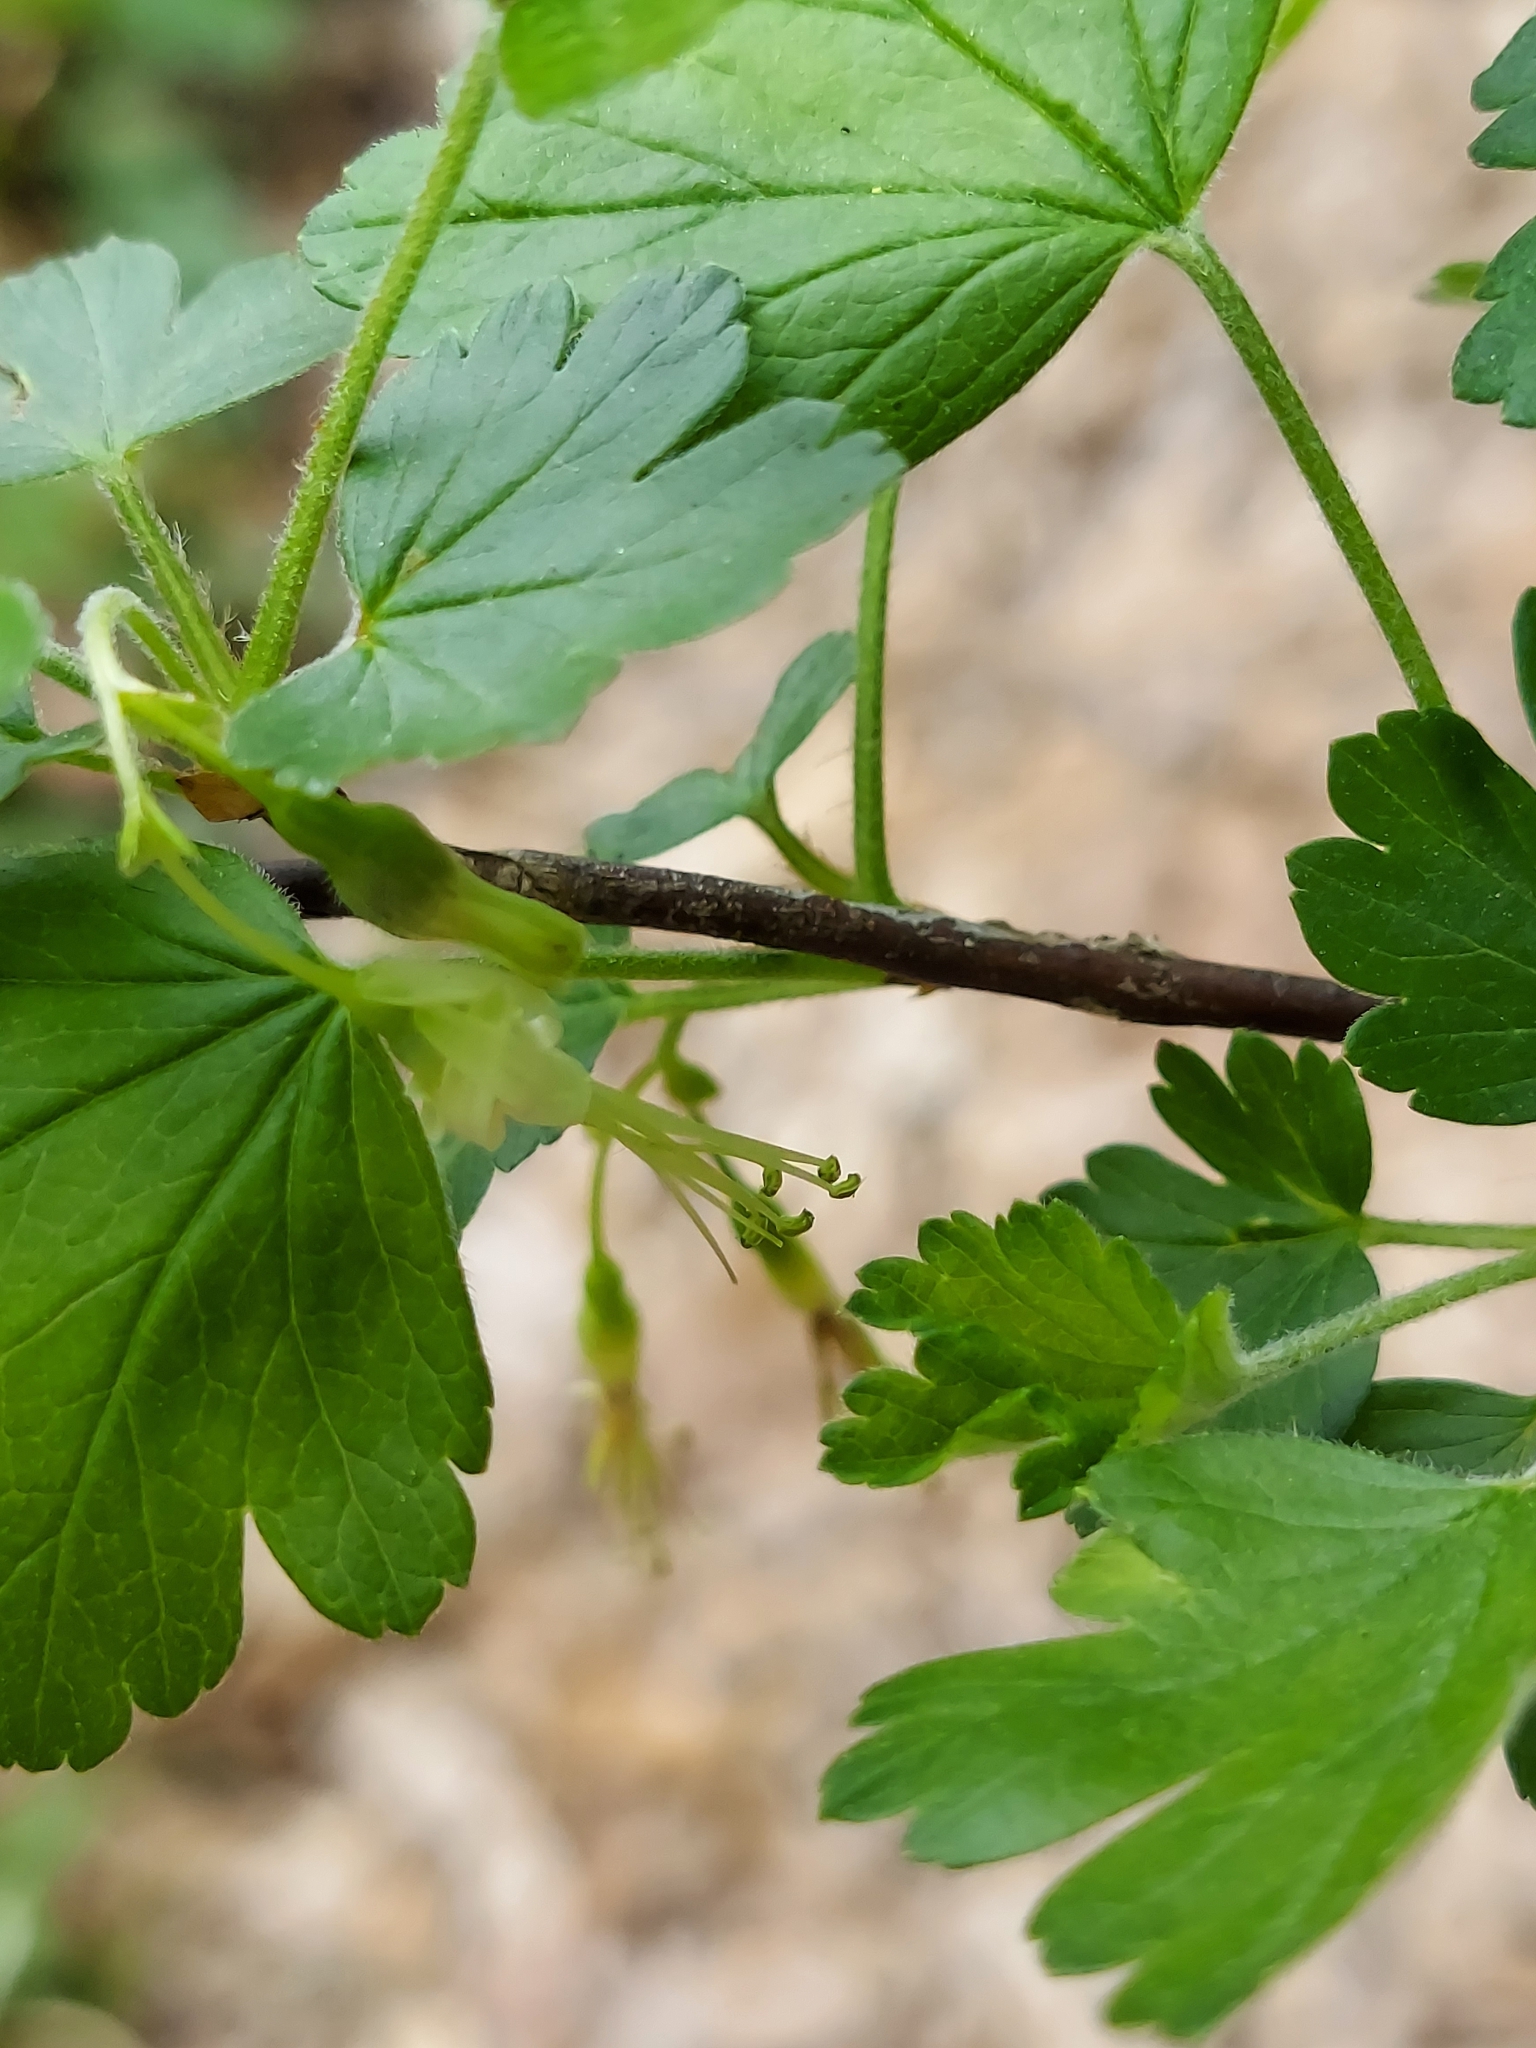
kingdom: Plantae
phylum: Tracheophyta
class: Magnoliopsida
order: Saxifragales
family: Grossulariaceae
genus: Ribes
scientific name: Ribes missouriense
